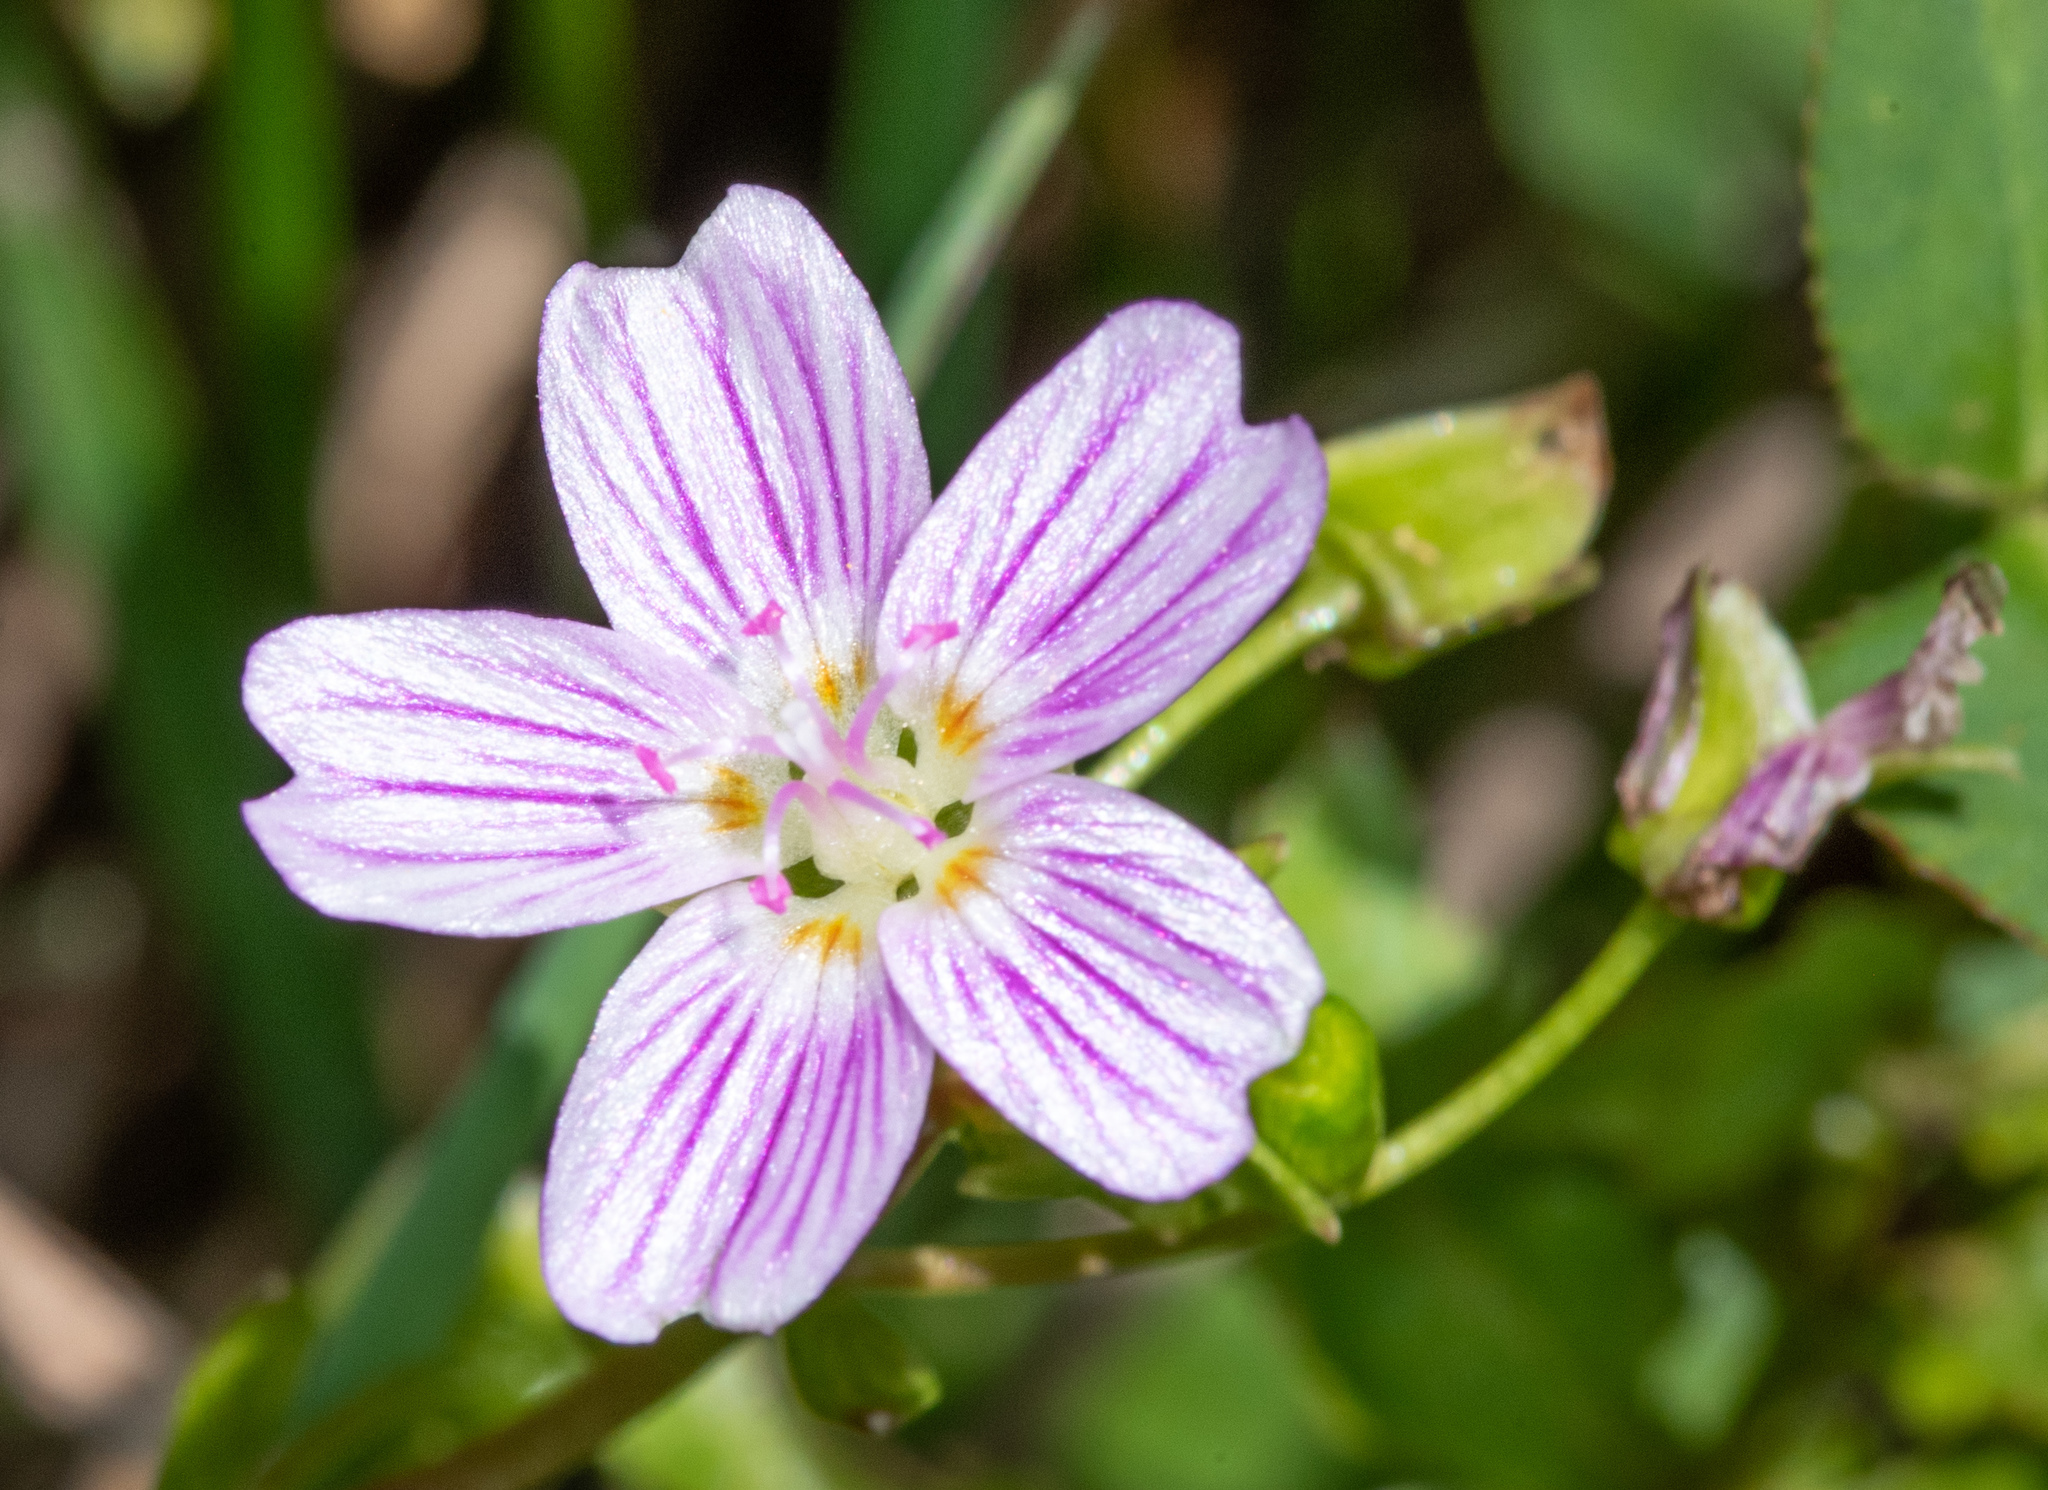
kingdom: Plantae
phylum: Tracheophyta
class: Magnoliopsida
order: Caryophyllales
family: Montiaceae
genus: Claytonia
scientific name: Claytonia sibirica
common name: Pink purslane
